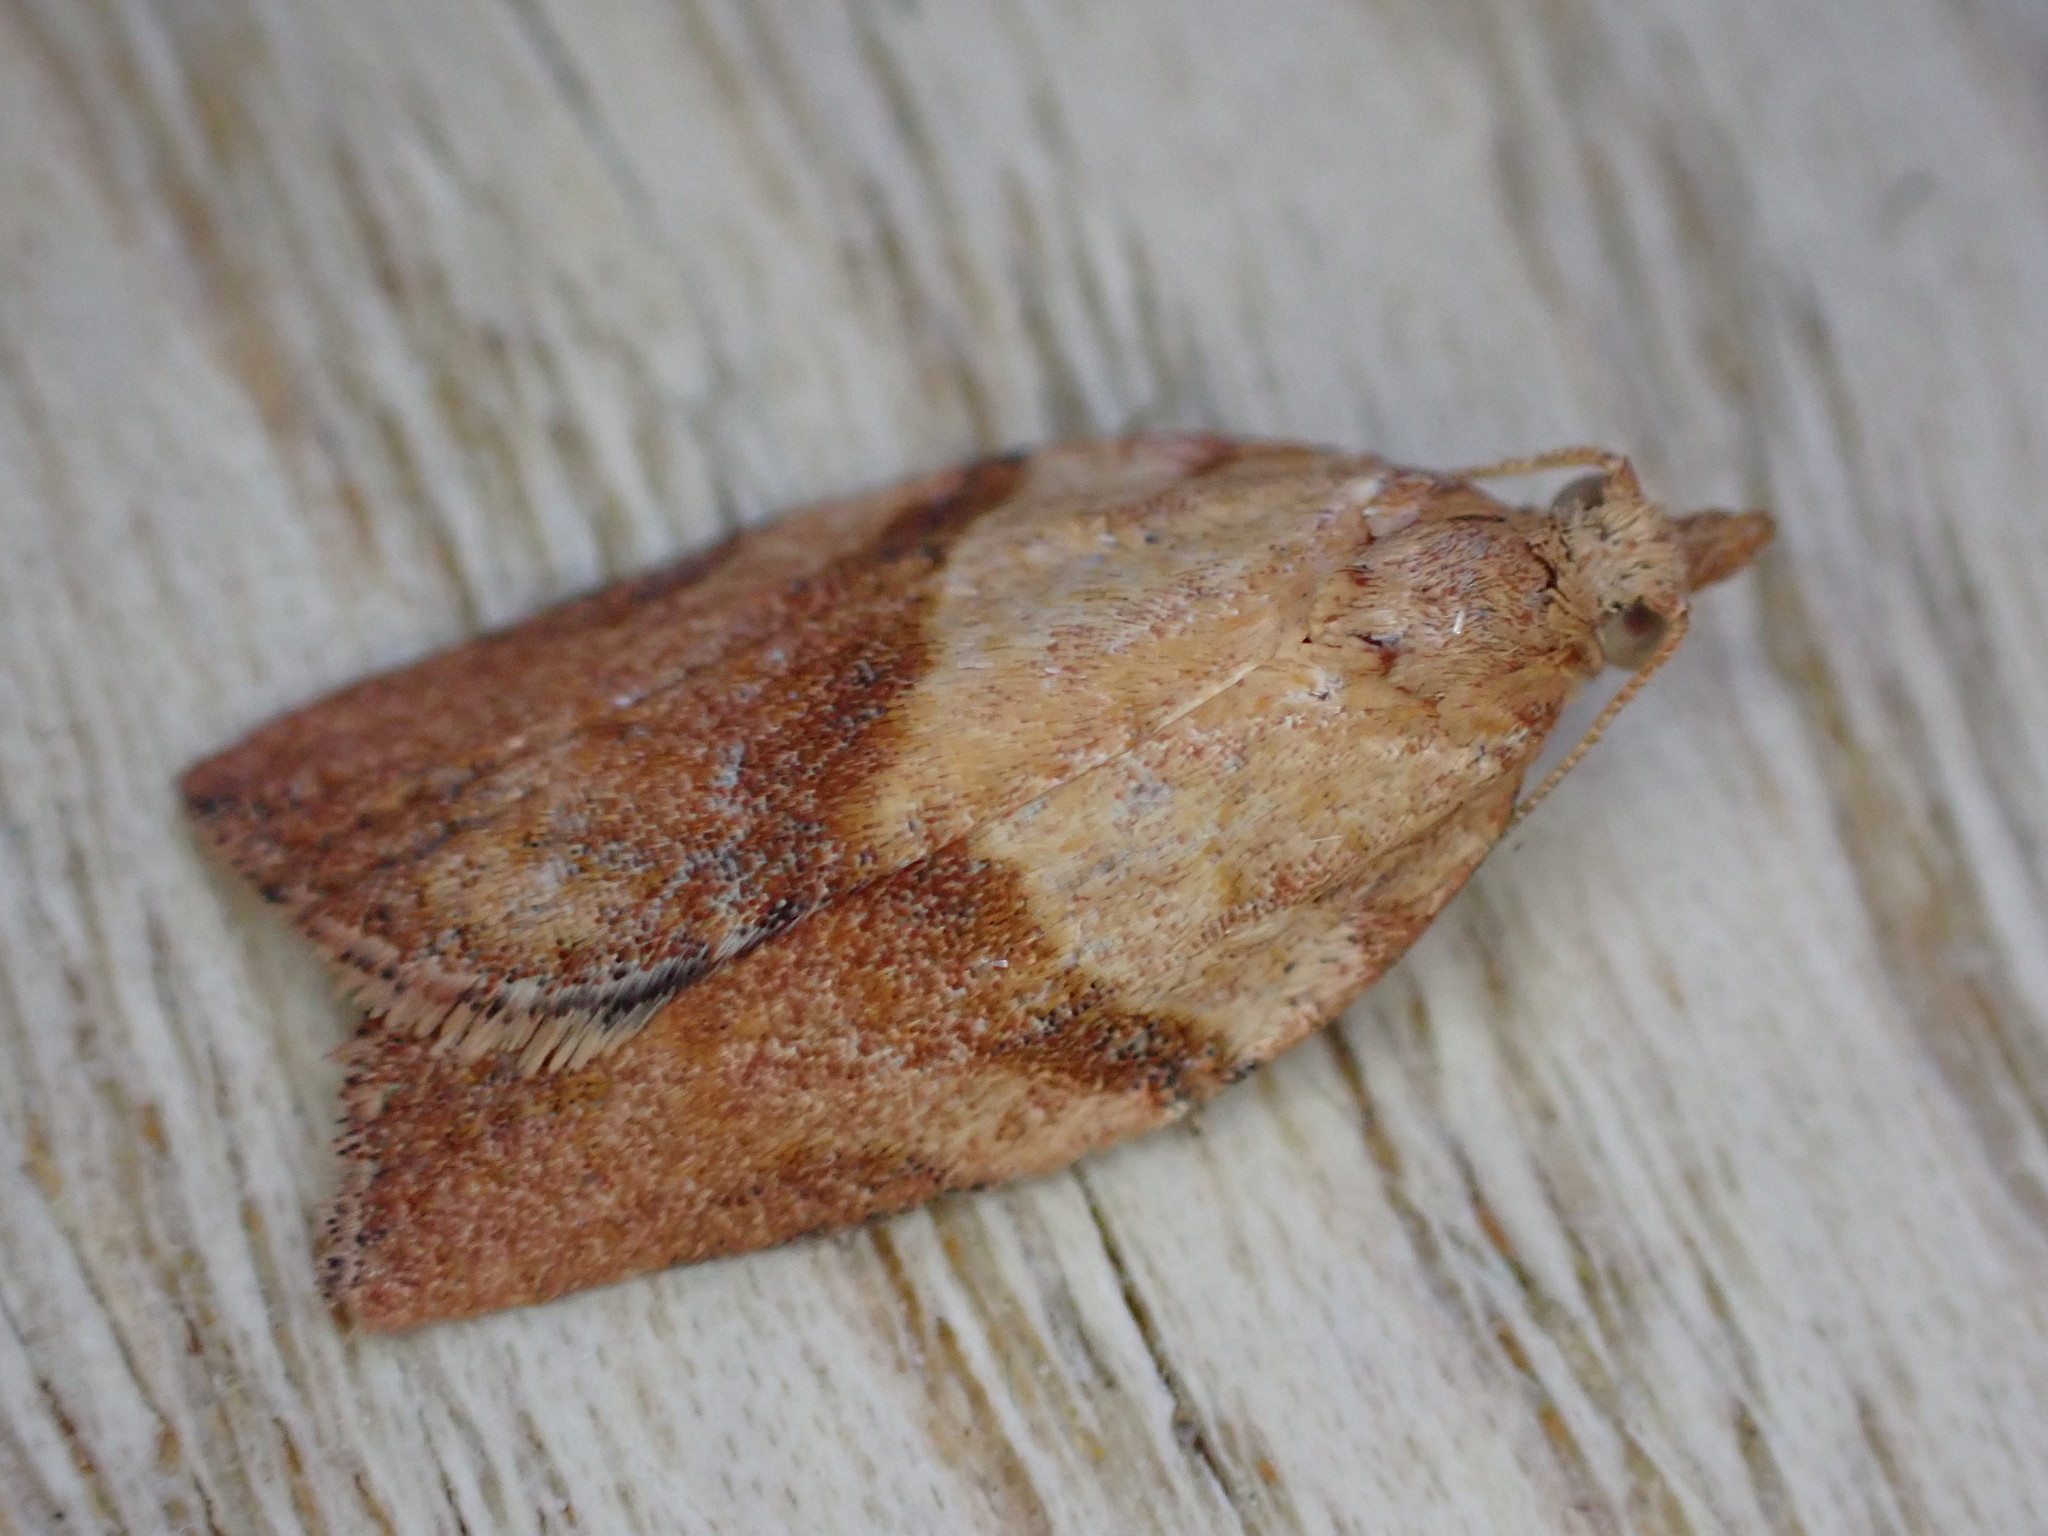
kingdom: Animalia
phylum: Arthropoda
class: Insecta
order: Lepidoptera
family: Tortricidae
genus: Epiphyas
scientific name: Epiphyas postvittana
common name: Light brown apple moth
